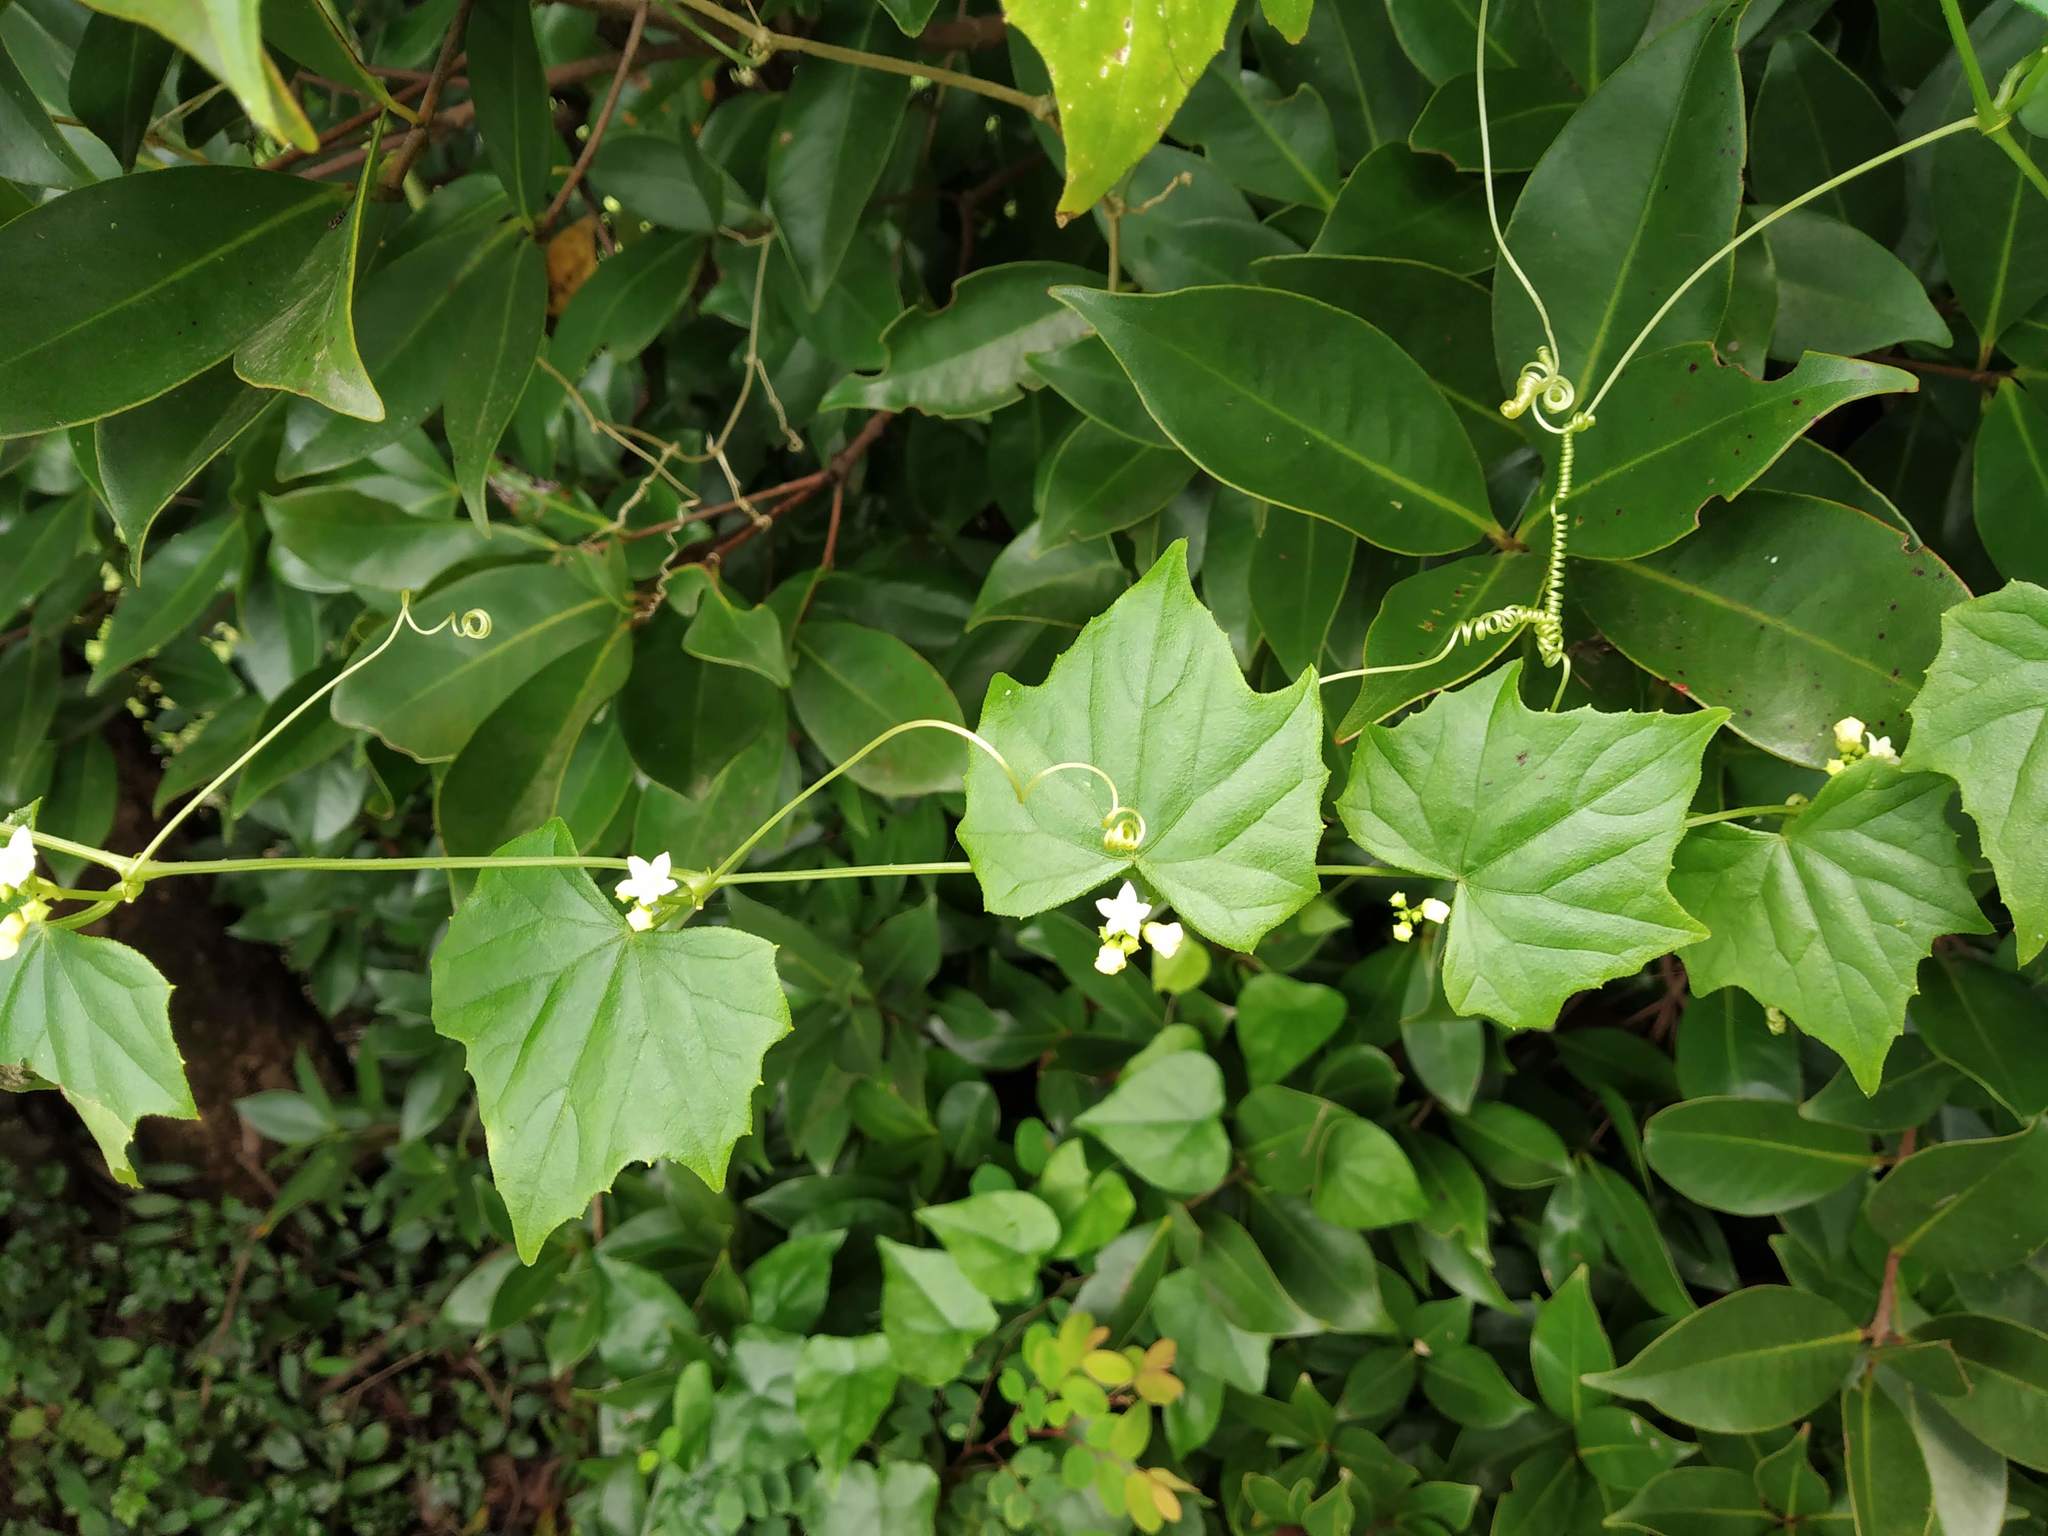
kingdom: Plantae
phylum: Tracheophyta
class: Magnoliopsida
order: Cucurbitales
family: Cucurbitaceae
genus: Zehneria
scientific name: Zehneria
